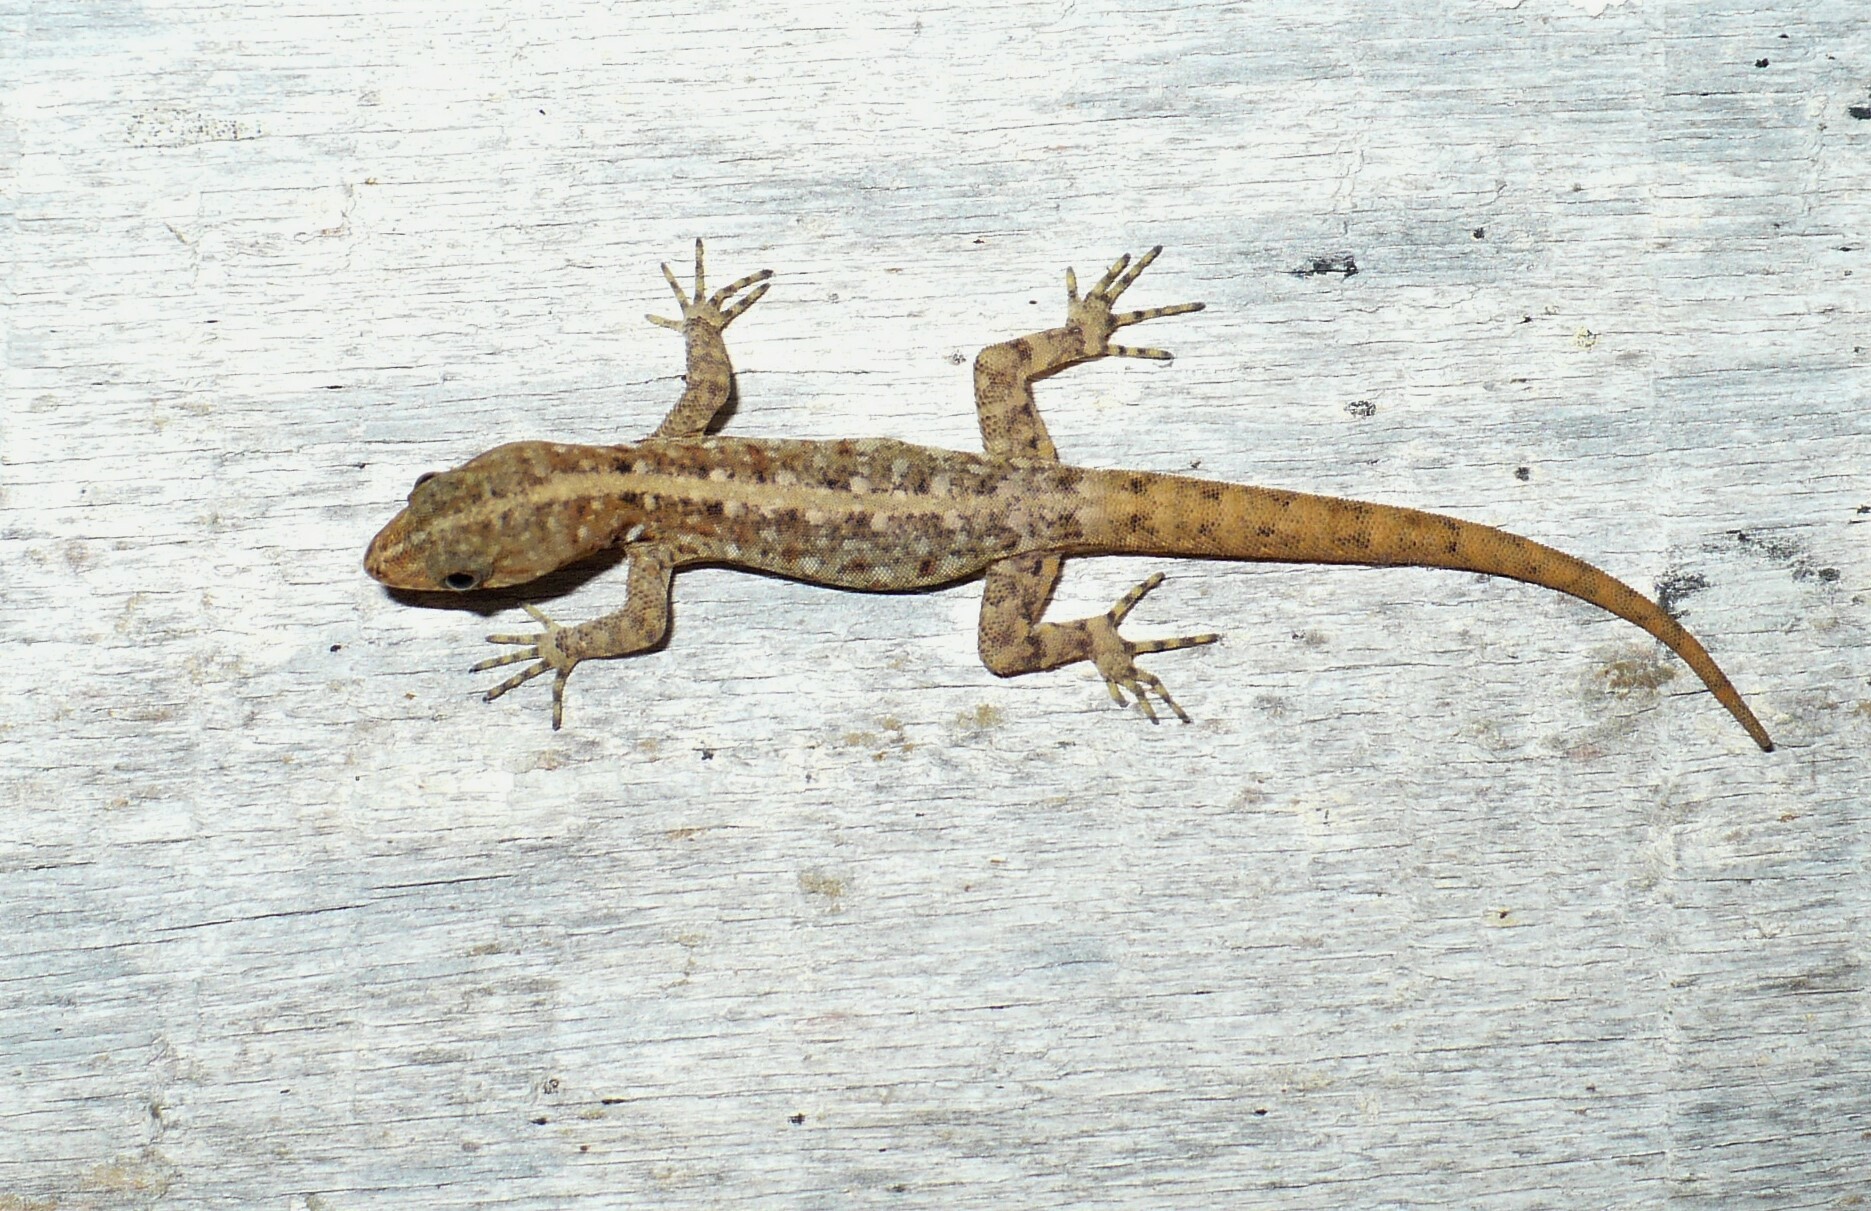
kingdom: Animalia
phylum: Chordata
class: Squamata
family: Sphaerodactylidae
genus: Gonatodes
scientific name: Gonatodes vittatus
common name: Wiegmann's striped gecko
